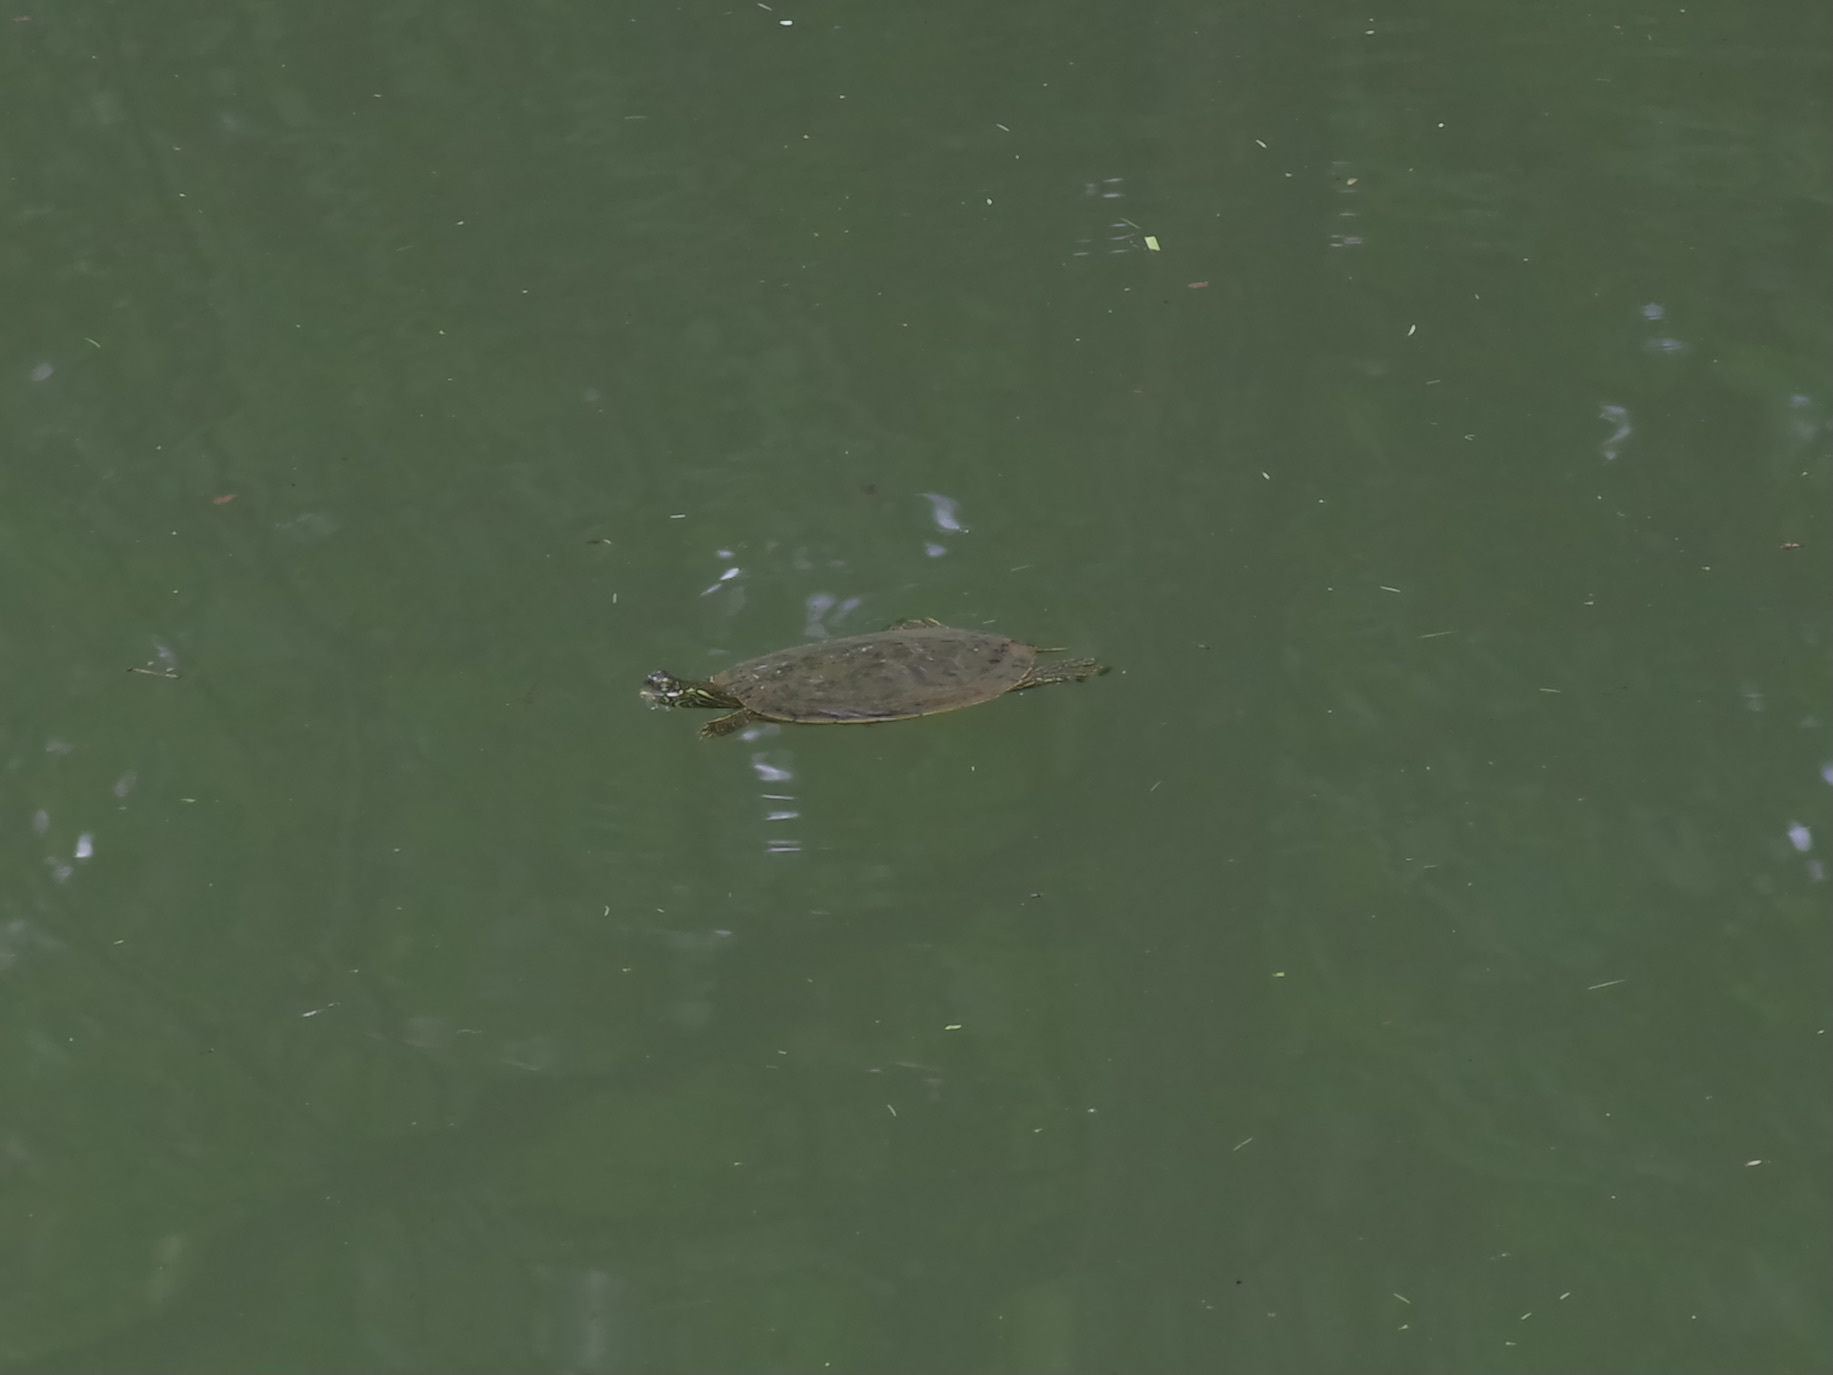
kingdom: Animalia
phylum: Chordata
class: Testudines
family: Emydidae
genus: Pseudemys
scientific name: Pseudemys texana
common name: Texas river cooter
